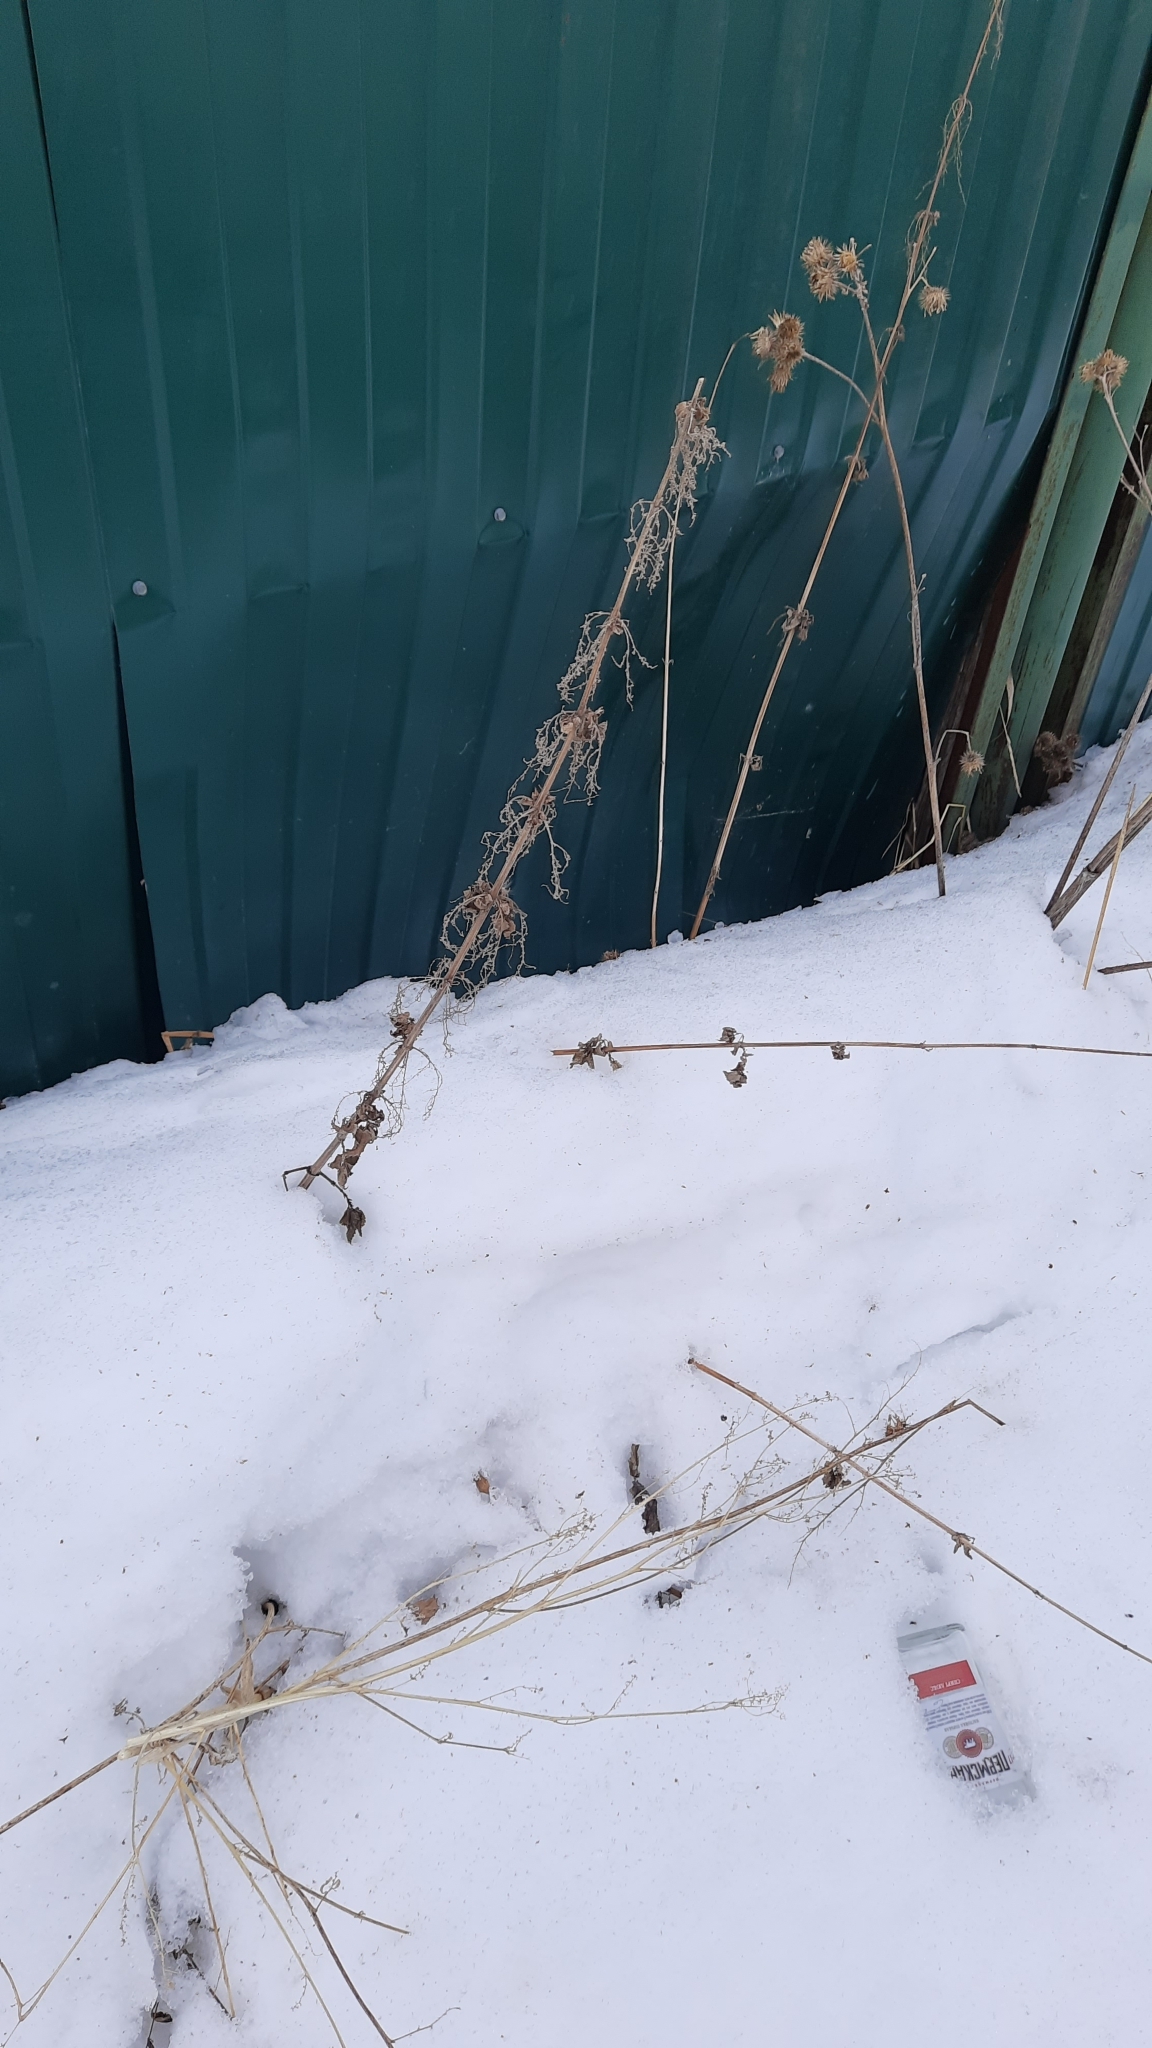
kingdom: Plantae
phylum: Tracheophyta
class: Magnoliopsida
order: Rosales
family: Urticaceae
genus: Urtica
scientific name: Urtica dioica
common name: Common nettle
